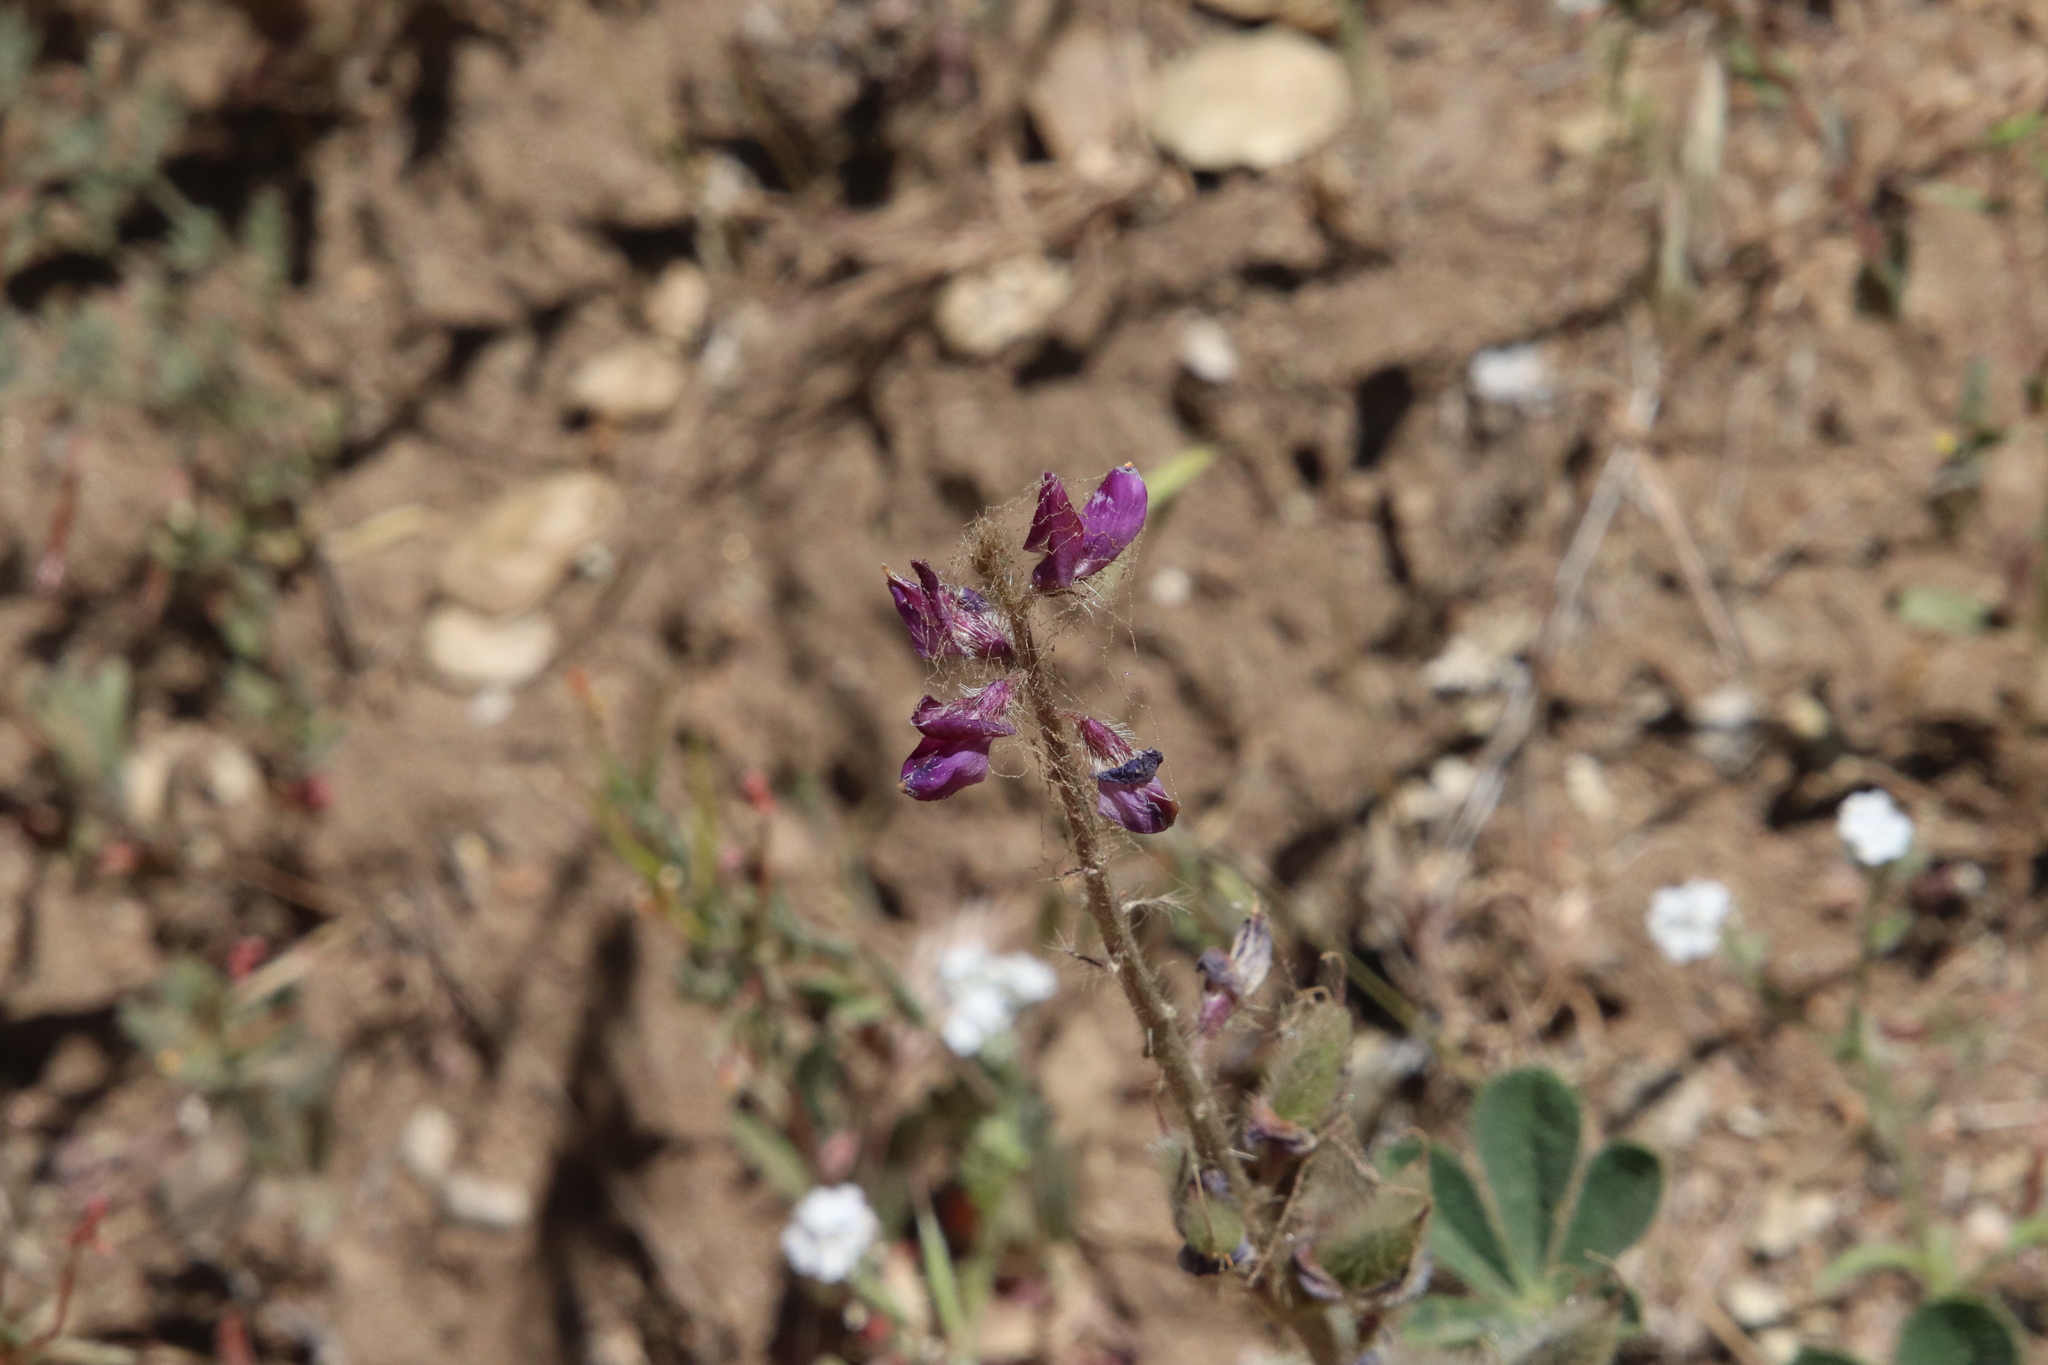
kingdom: Plantae
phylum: Tracheophyta
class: Magnoliopsida
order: Fabales
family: Fabaceae
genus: Lupinus
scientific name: Lupinus hirsutissimus
